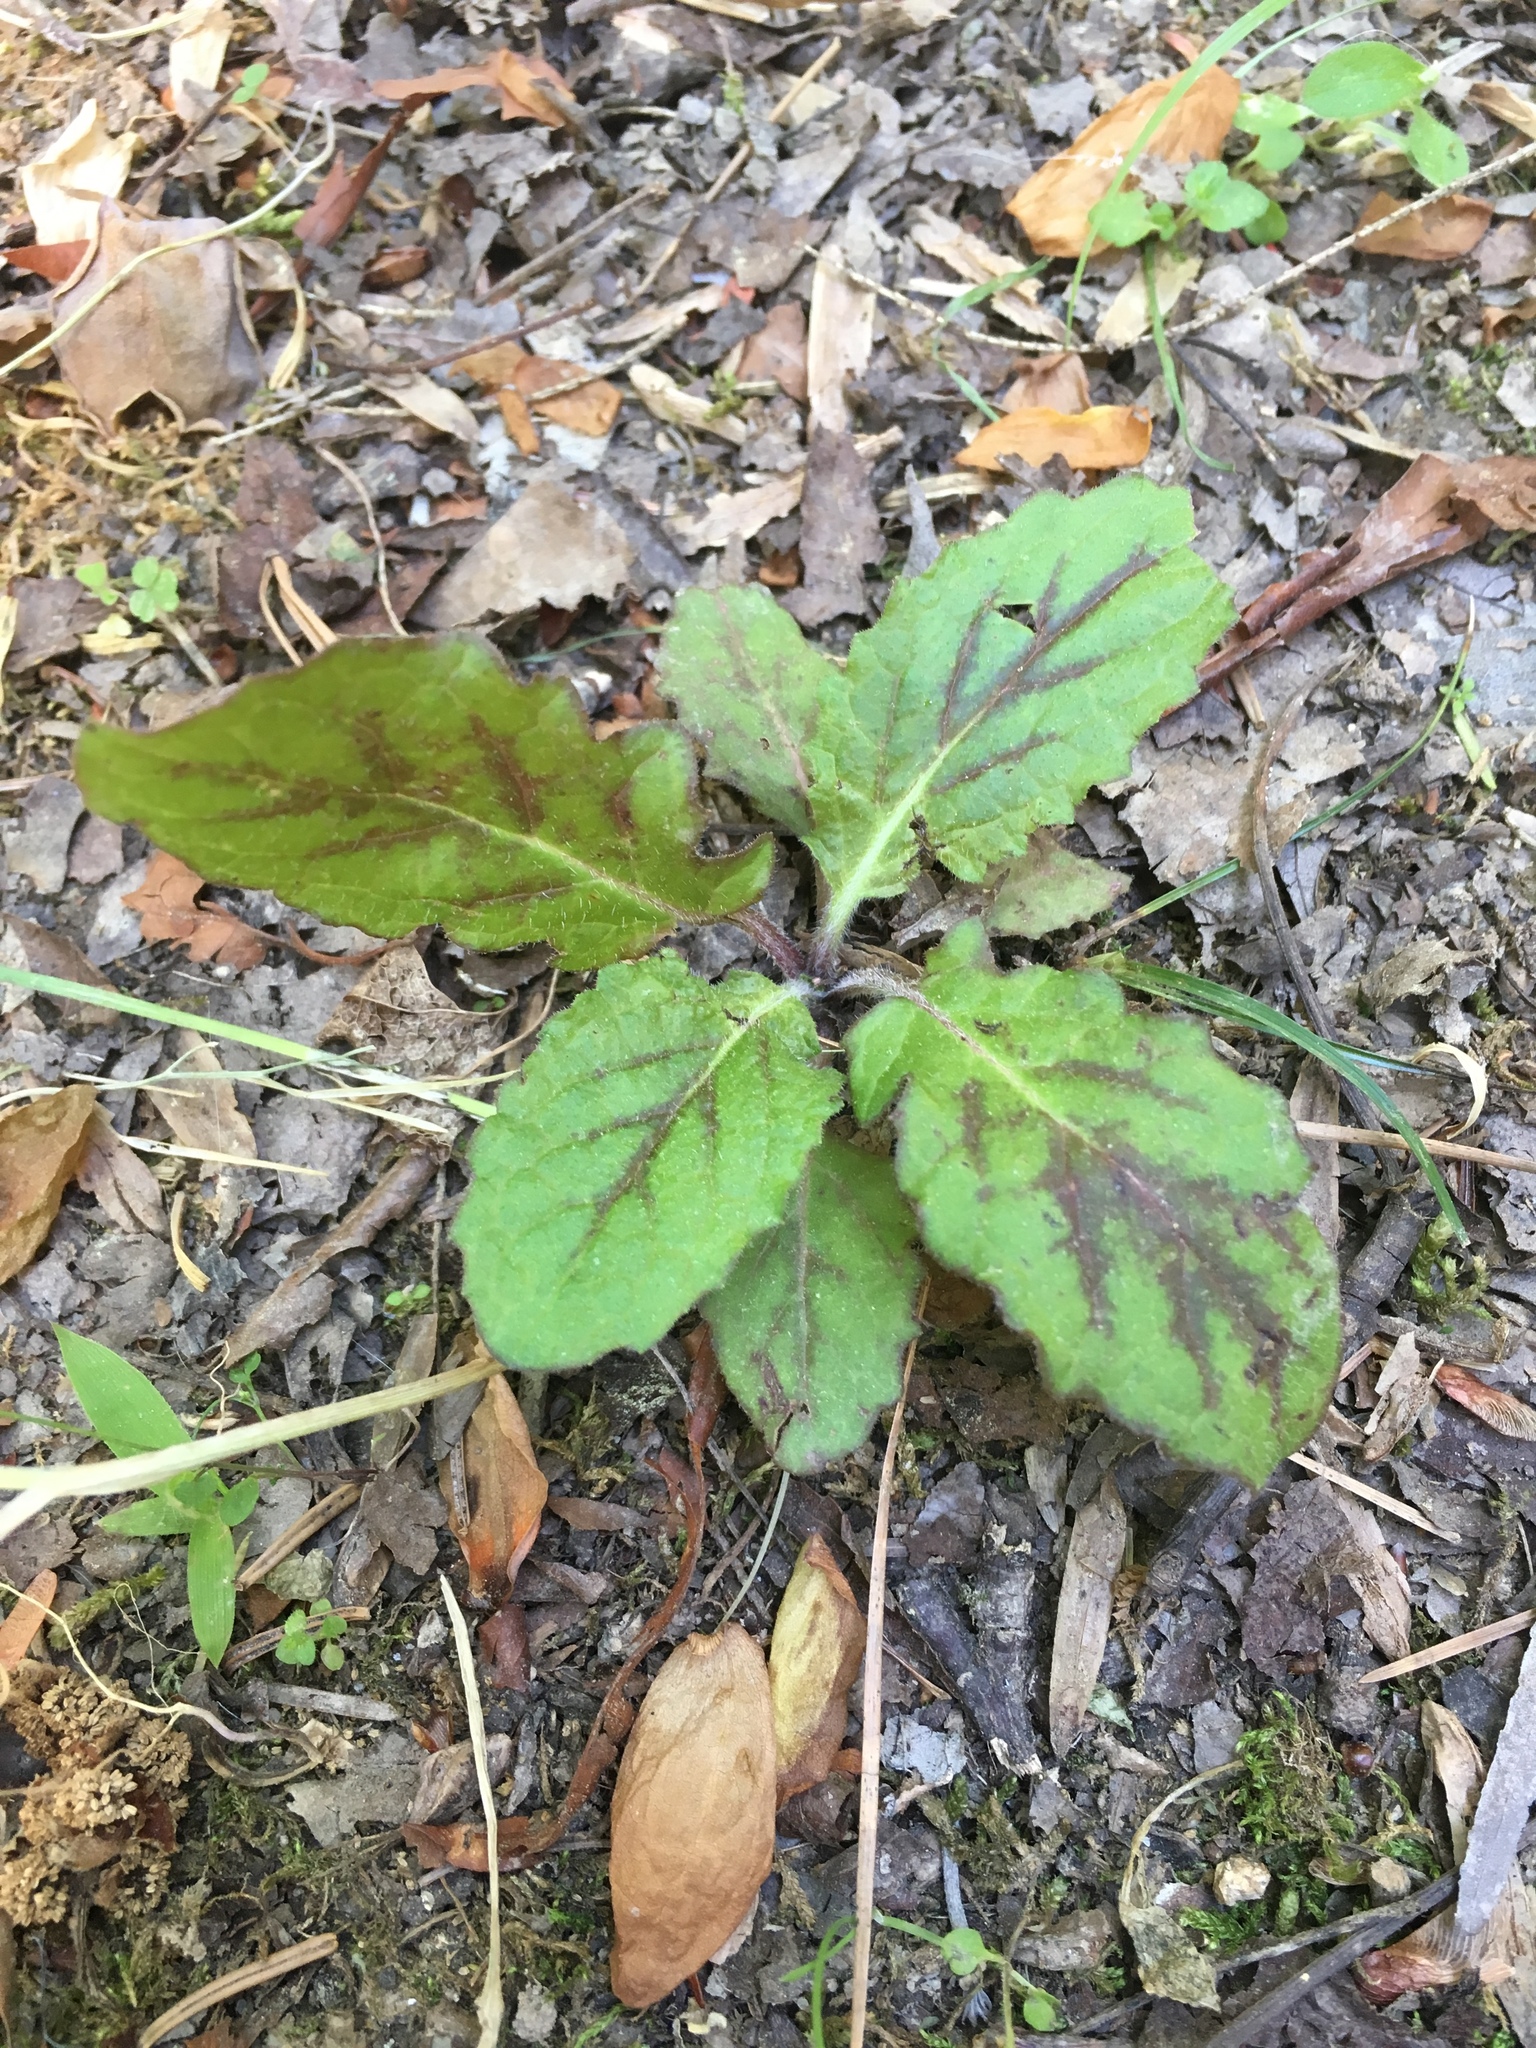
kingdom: Plantae
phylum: Tracheophyta
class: Magnoliopsida
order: Lamiales
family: Lamiaceae
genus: Salvia
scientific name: Salvia lyrata
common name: Cancerweed
